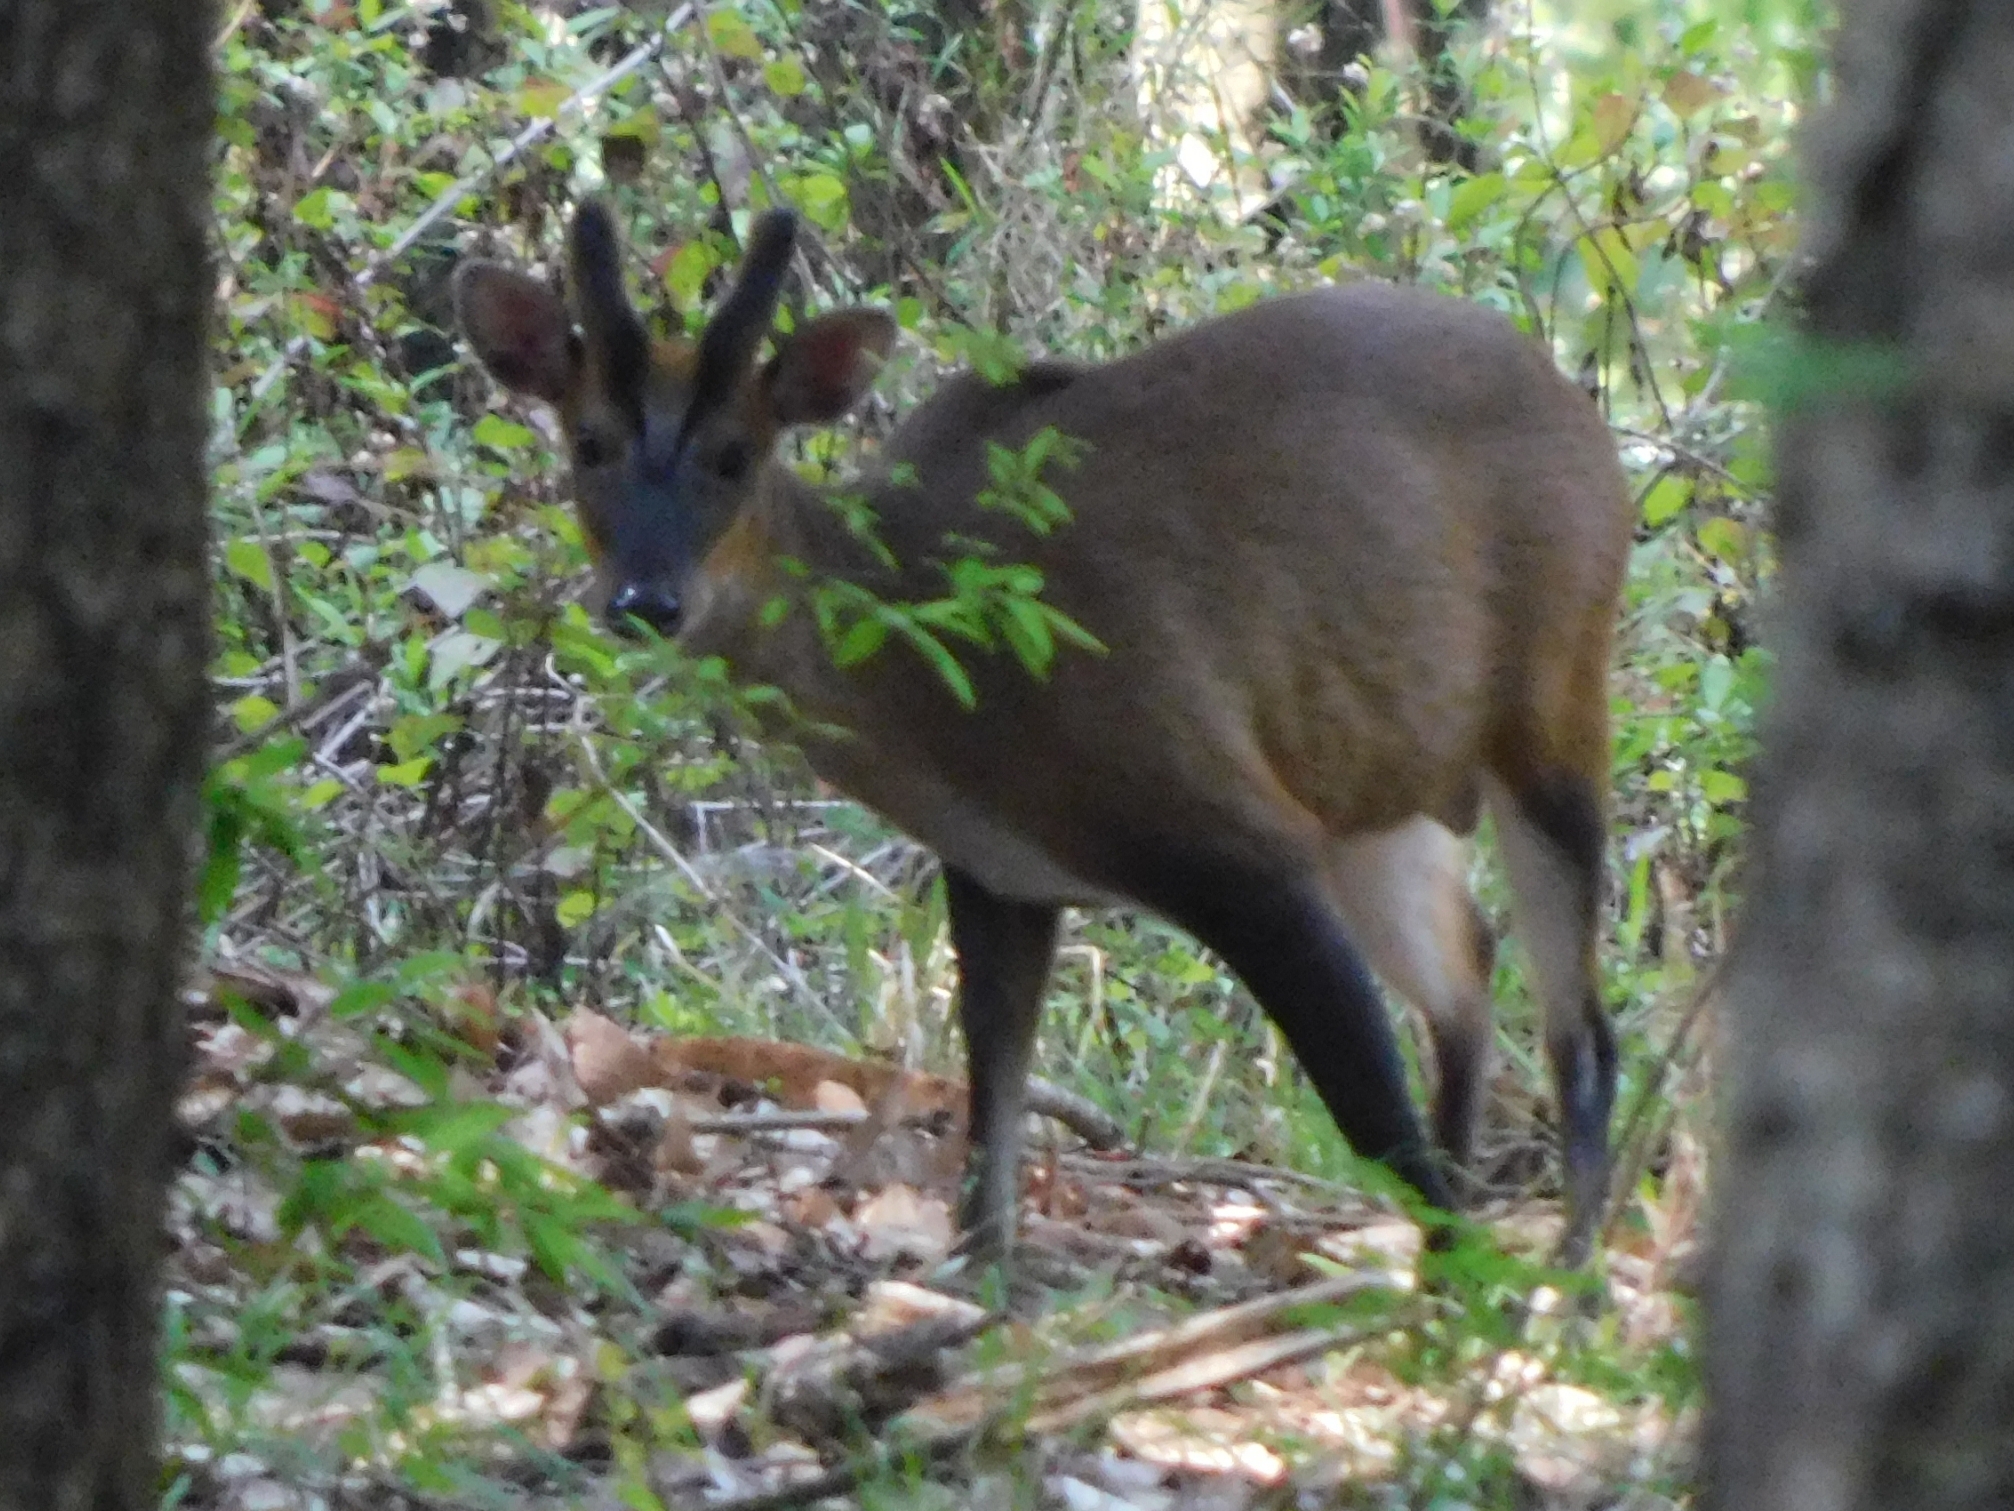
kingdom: Animalia
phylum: Chordata
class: Mammalia
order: Artiodactyla
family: Cervidae
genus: Muntiacus
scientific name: Muntiacus muntjak
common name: Indian muntjac
